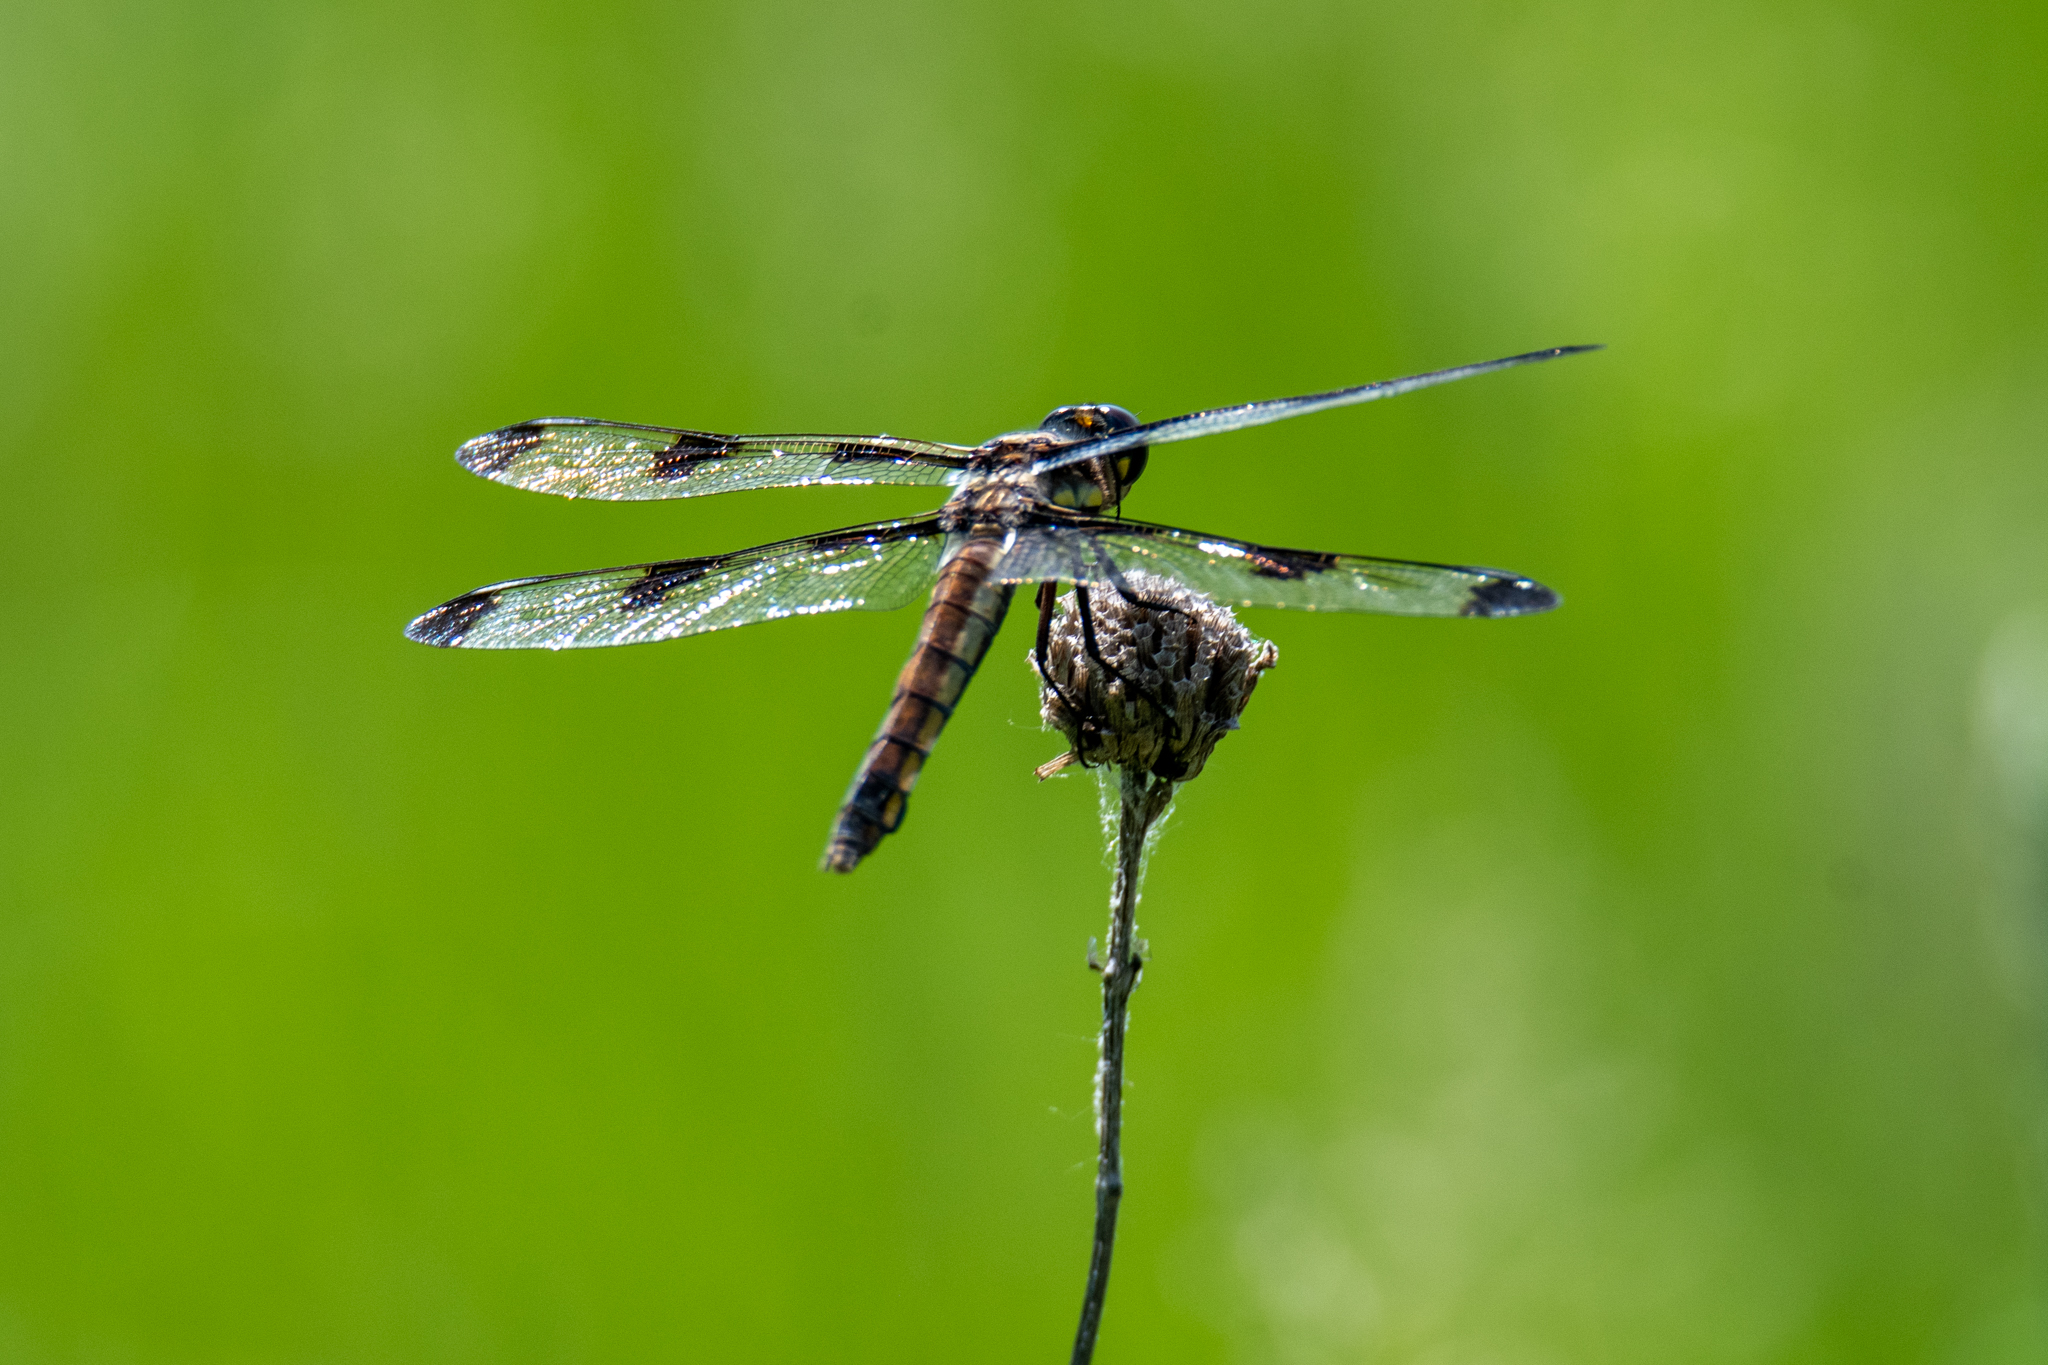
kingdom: Animalia
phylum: Arthropoda
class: Insecta
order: Odonata
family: Libellulidae
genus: Libellula
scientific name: Libellula pulchella
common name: Twelve-spotted skimmer
